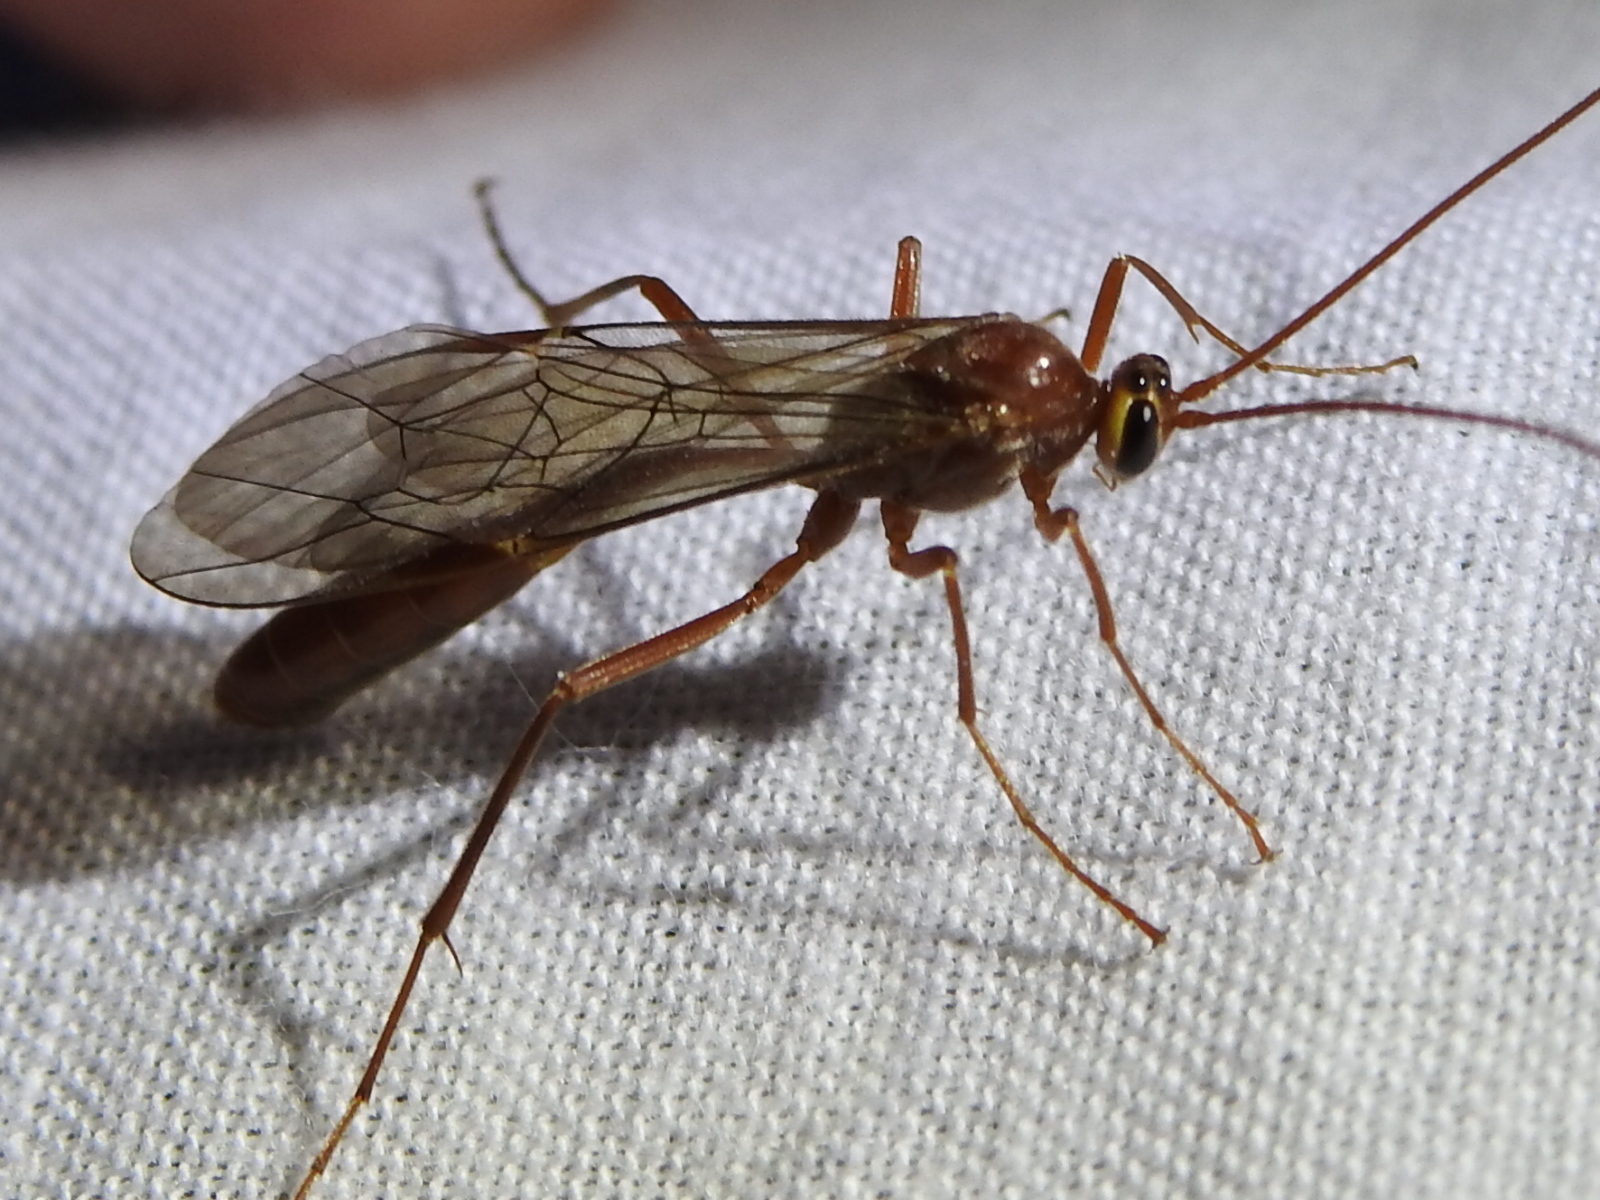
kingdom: Animalia
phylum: Arthropoda
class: Insecta
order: Hymenoptera
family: Ichneumonidae
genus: Ophion
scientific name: Ophion
